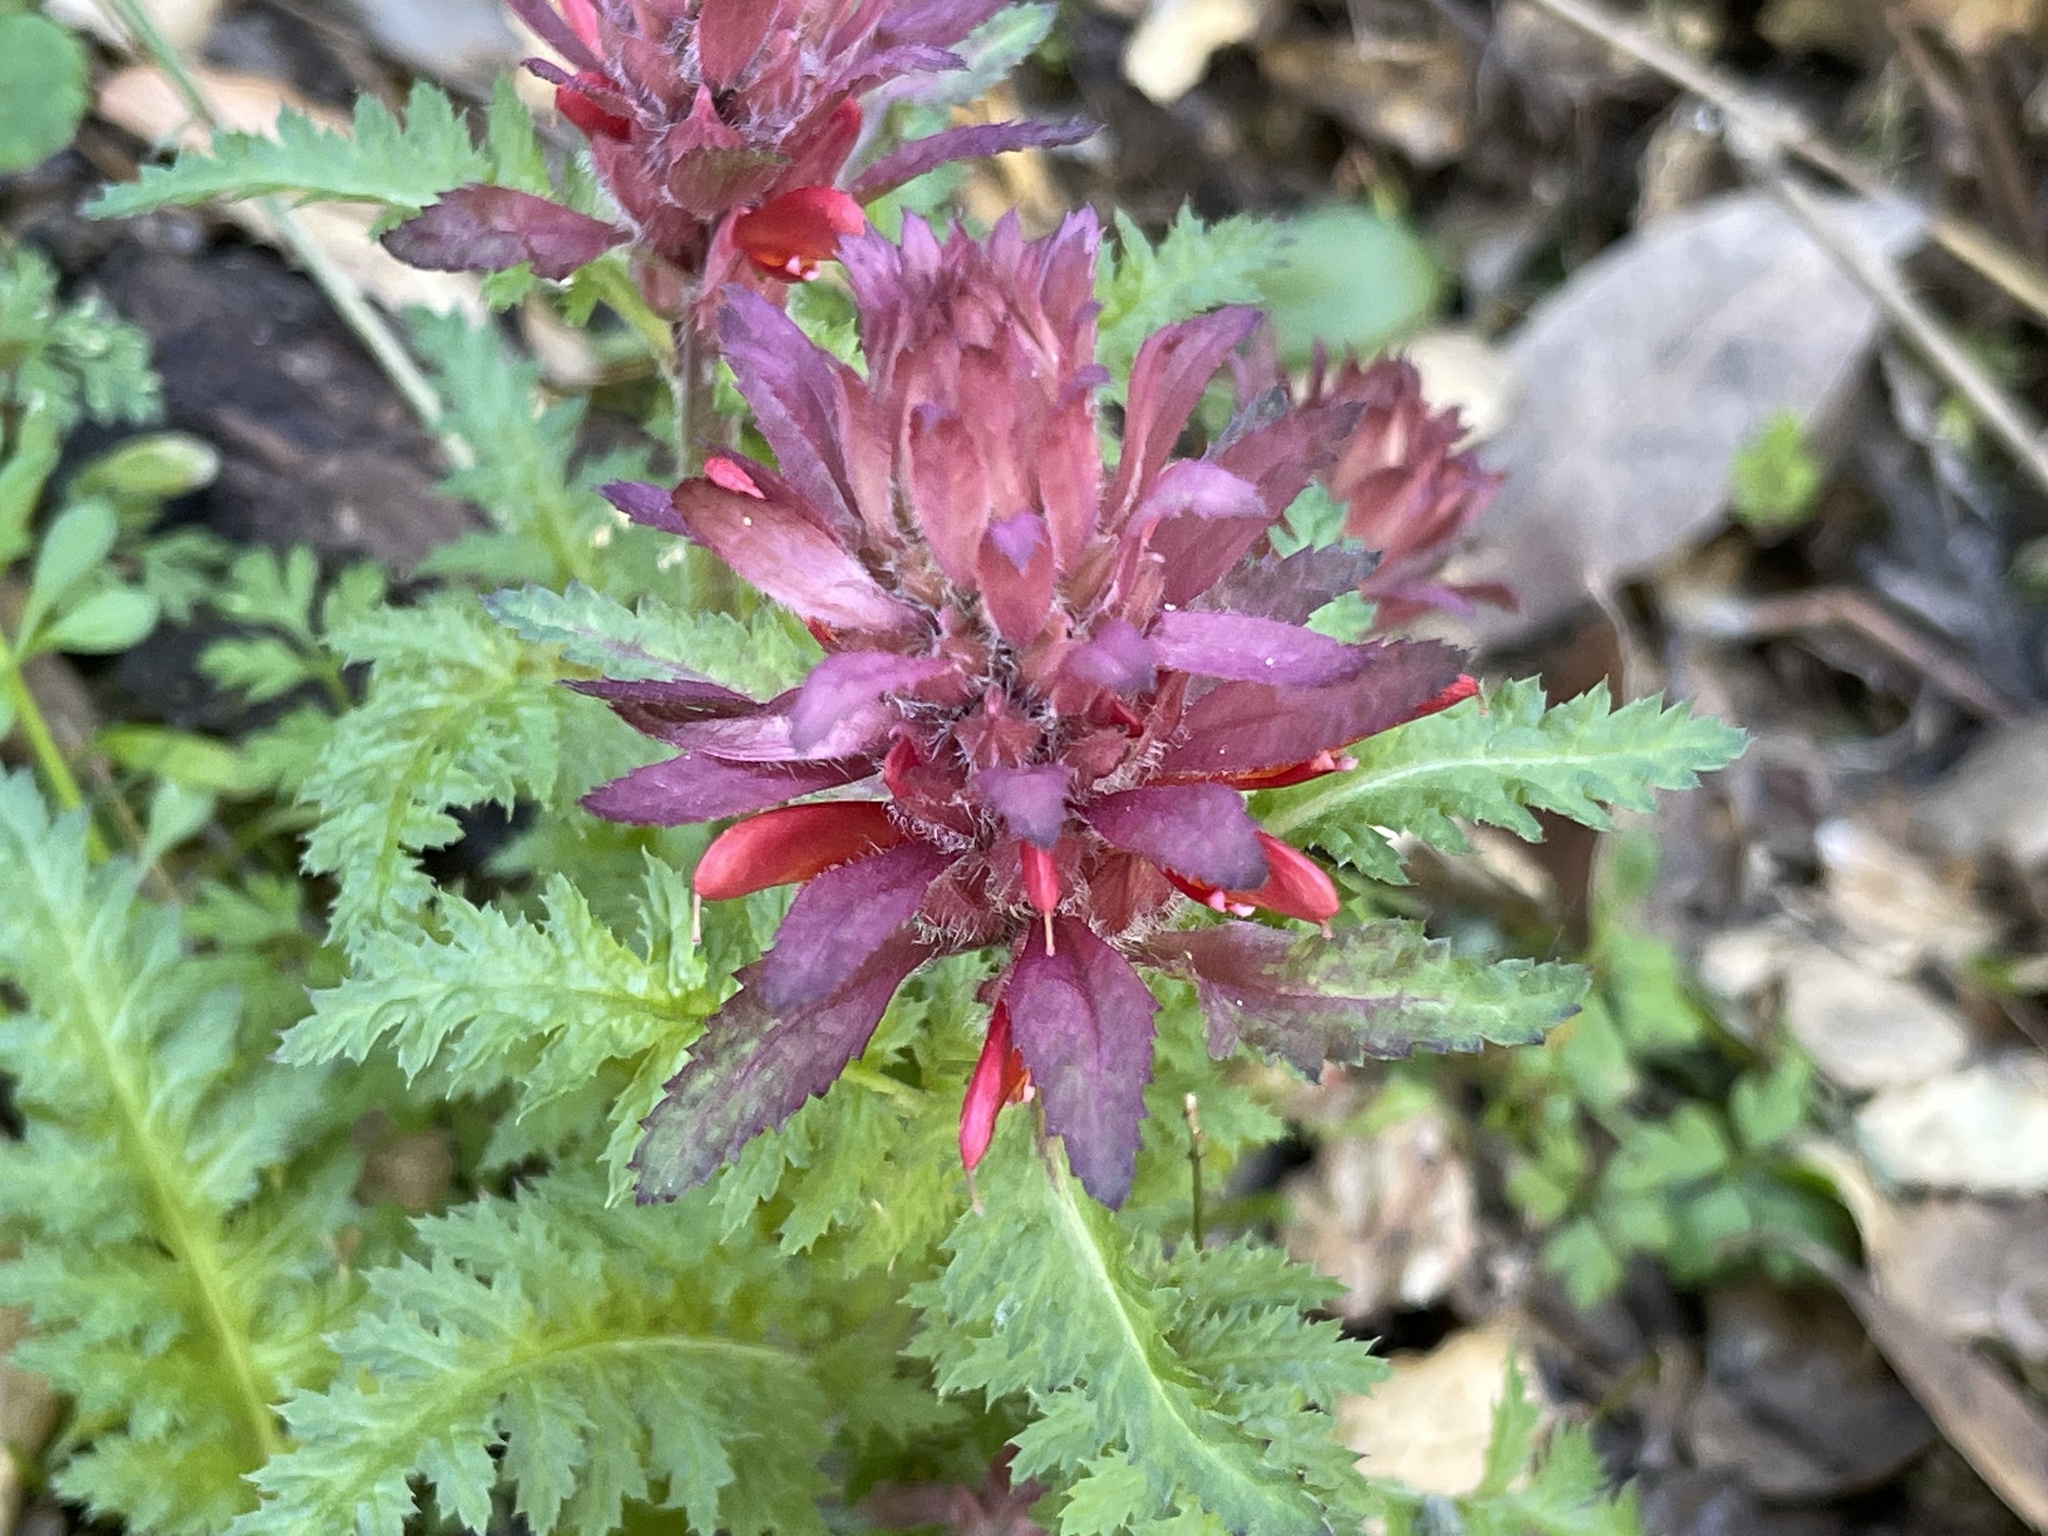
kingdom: Plantae
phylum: Tracheophyta
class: Magnoliopsida
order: Lamiales
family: Orobanchaceae
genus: Pedicularis
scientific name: Pedicularis densiflora
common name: Indian warrior
